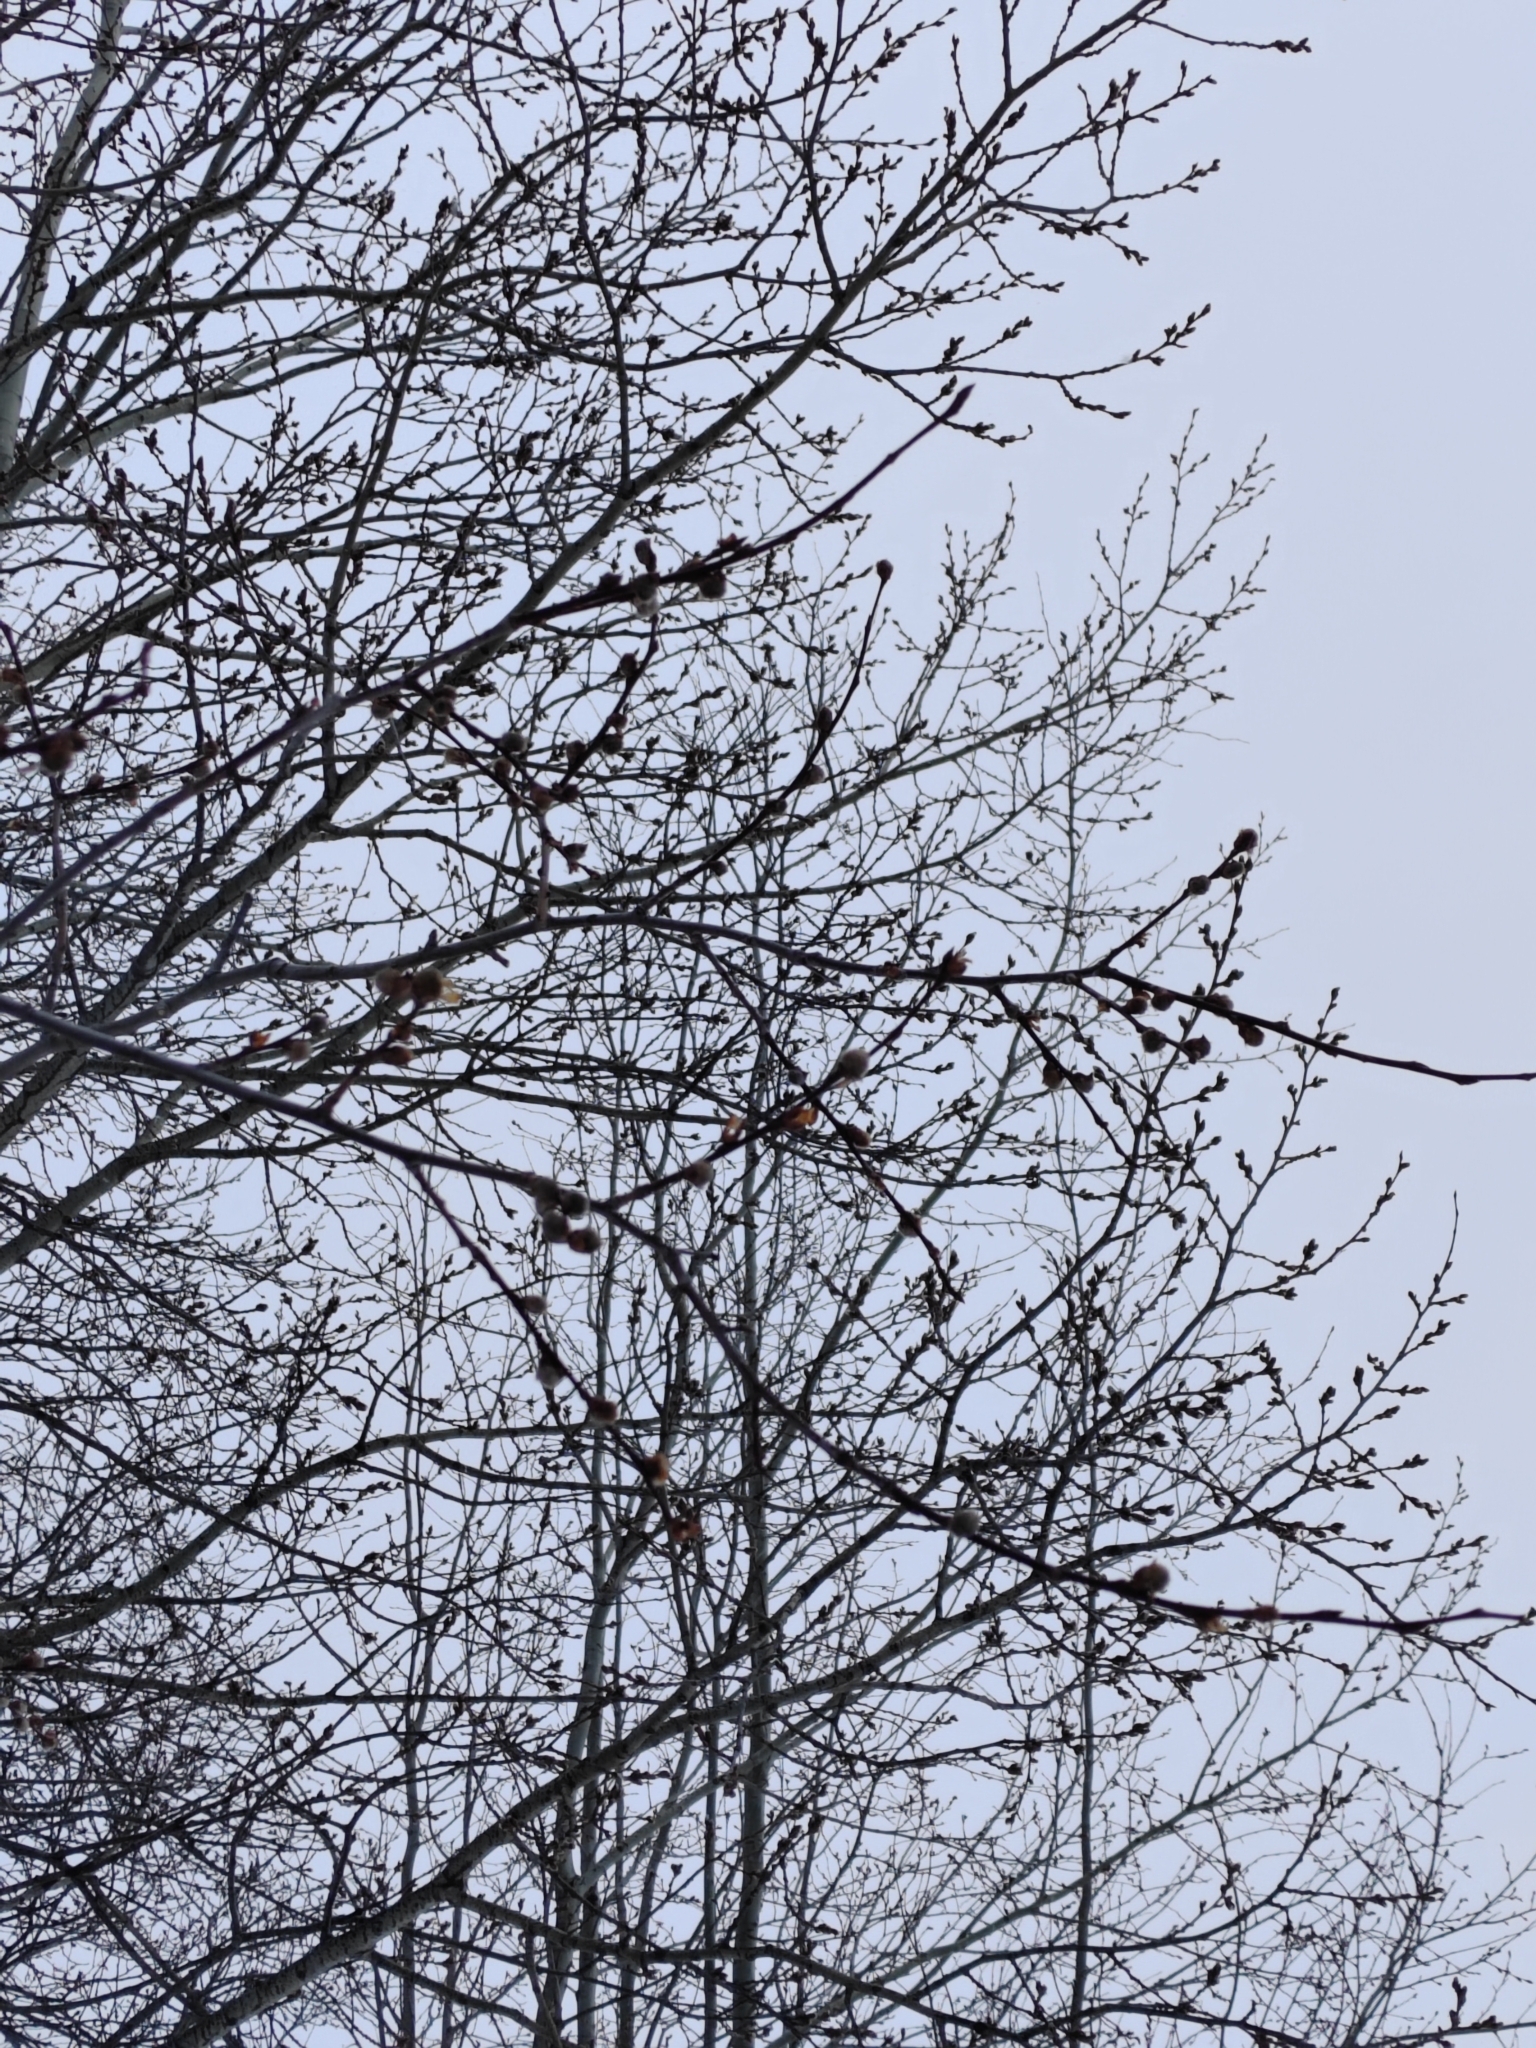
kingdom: Plantae
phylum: Tracheophyta
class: Magnoliopsida
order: Malpighiales
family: Salicaceae
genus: Populus
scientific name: Populus tremula
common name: European aspen
